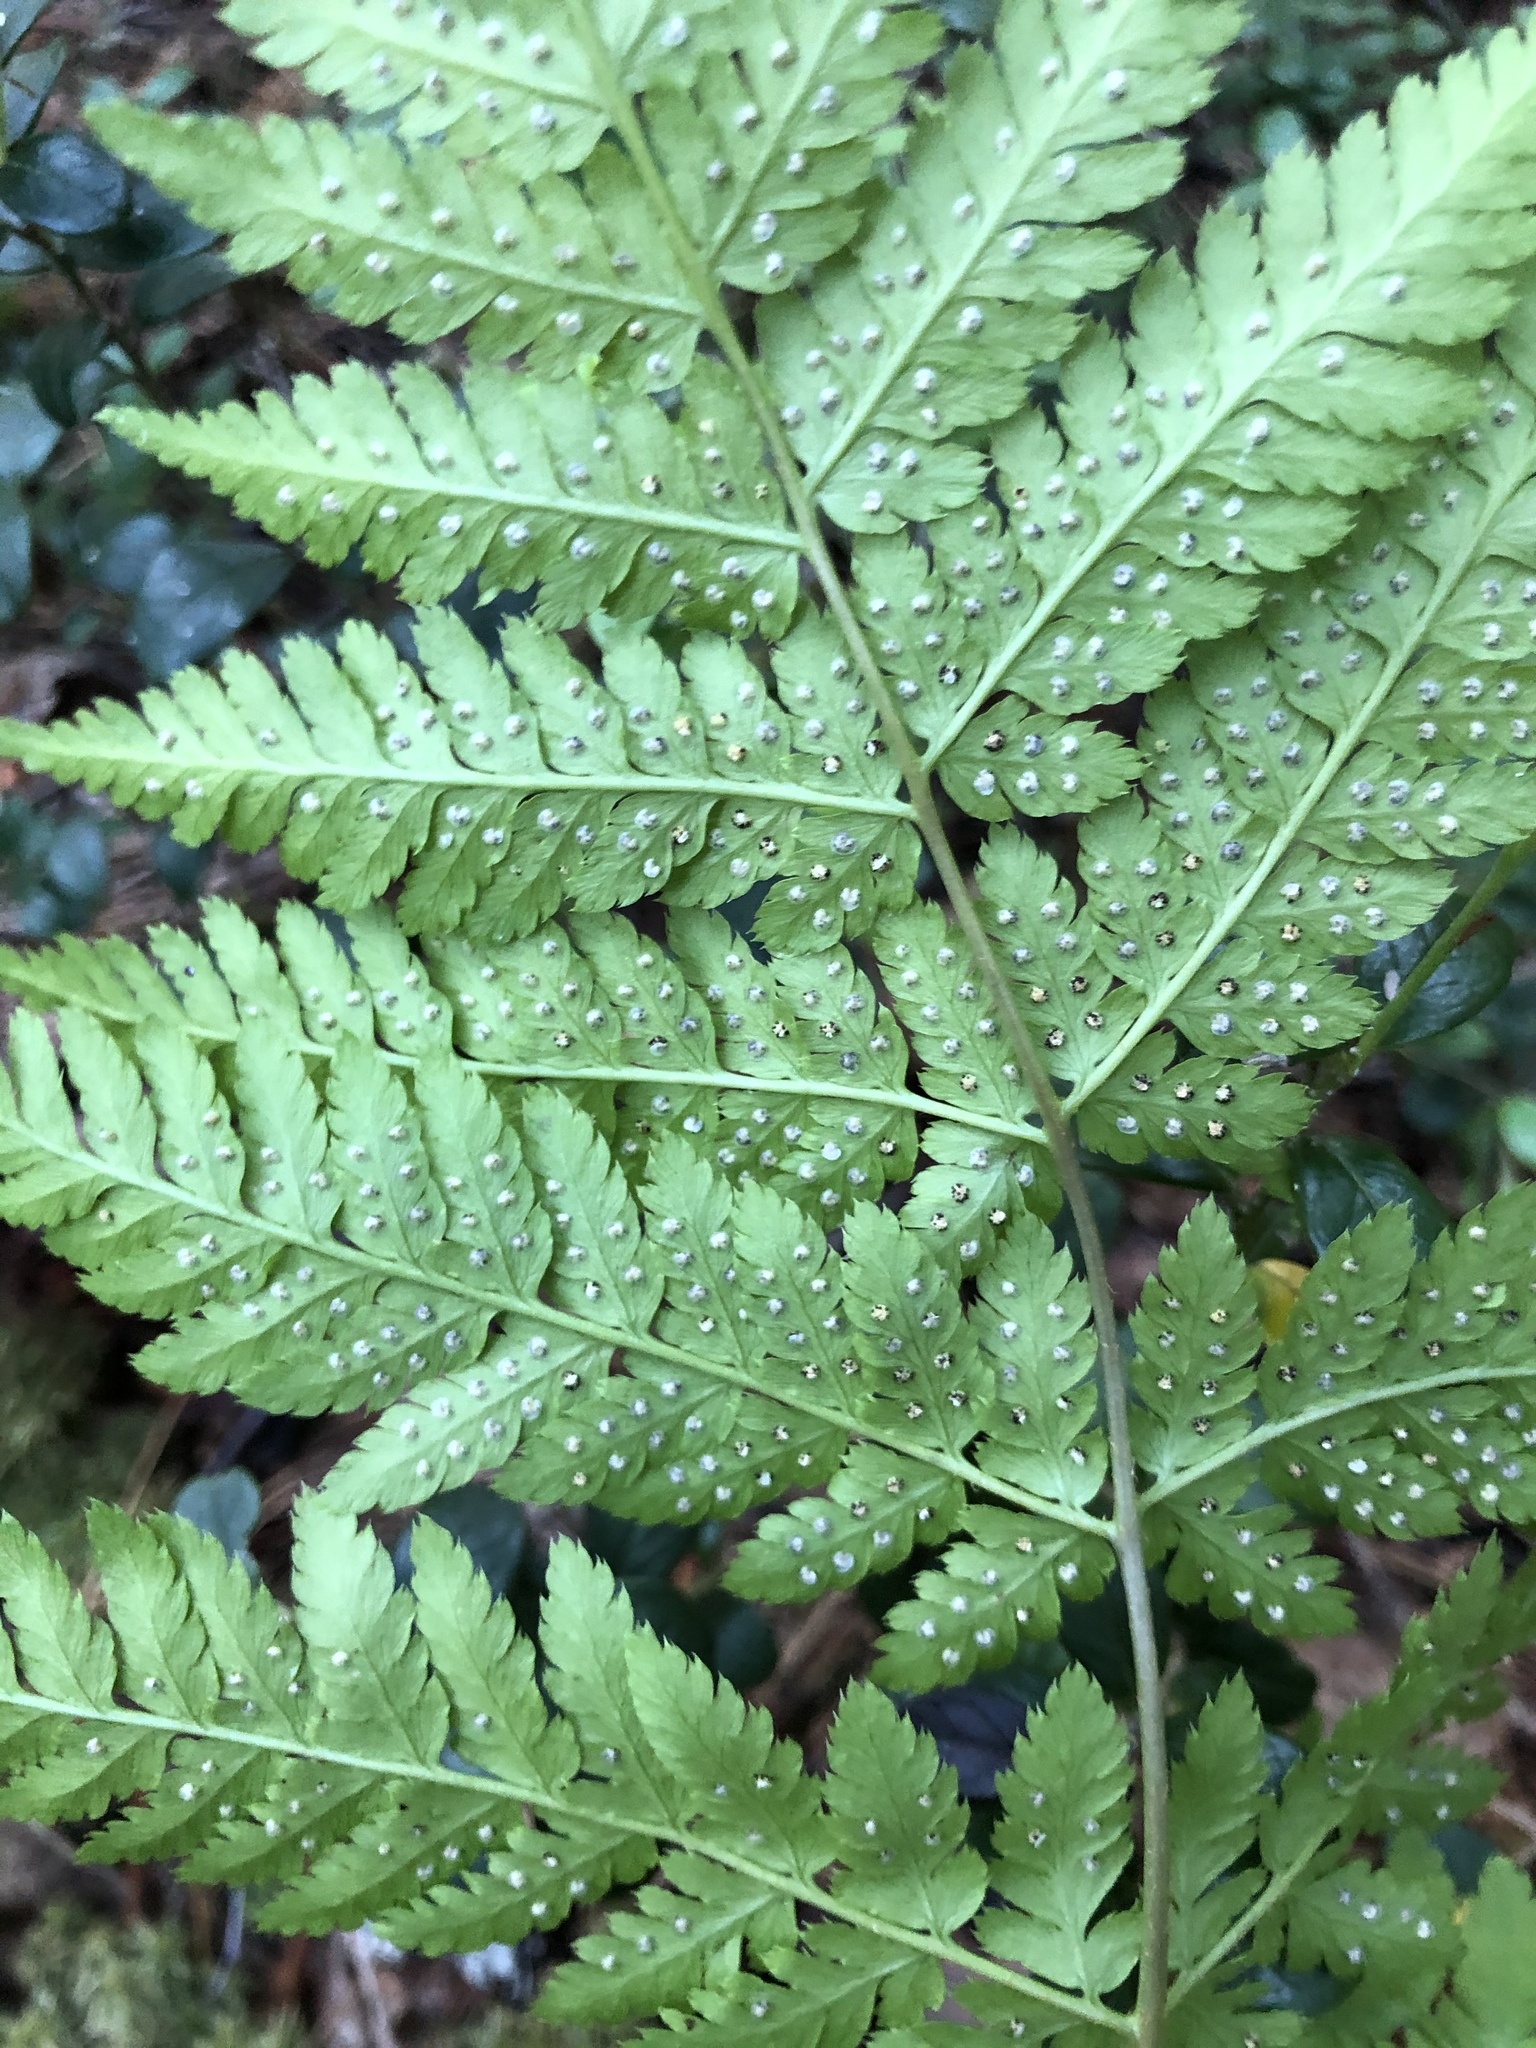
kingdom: Plantae
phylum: Tracheophyta
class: Polypodiopsida
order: Polypodiales
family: Dryopteridaceae
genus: Dryopteris
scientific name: Dryopteris carthusiana
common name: Narrow buckler-fern
